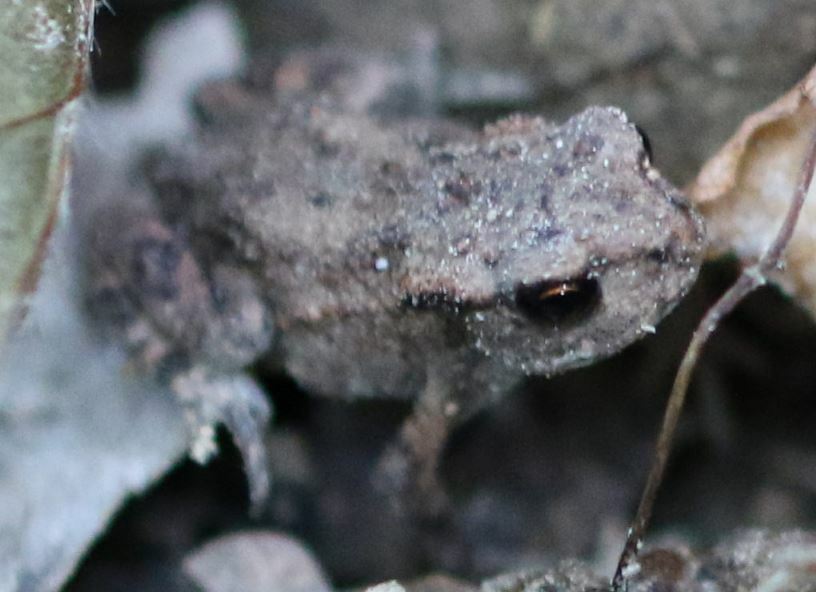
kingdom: Animalia
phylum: Chordata
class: Amphibia
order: Anura
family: Bufonidae
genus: Bufo
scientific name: Bufo bufo
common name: Common toad
